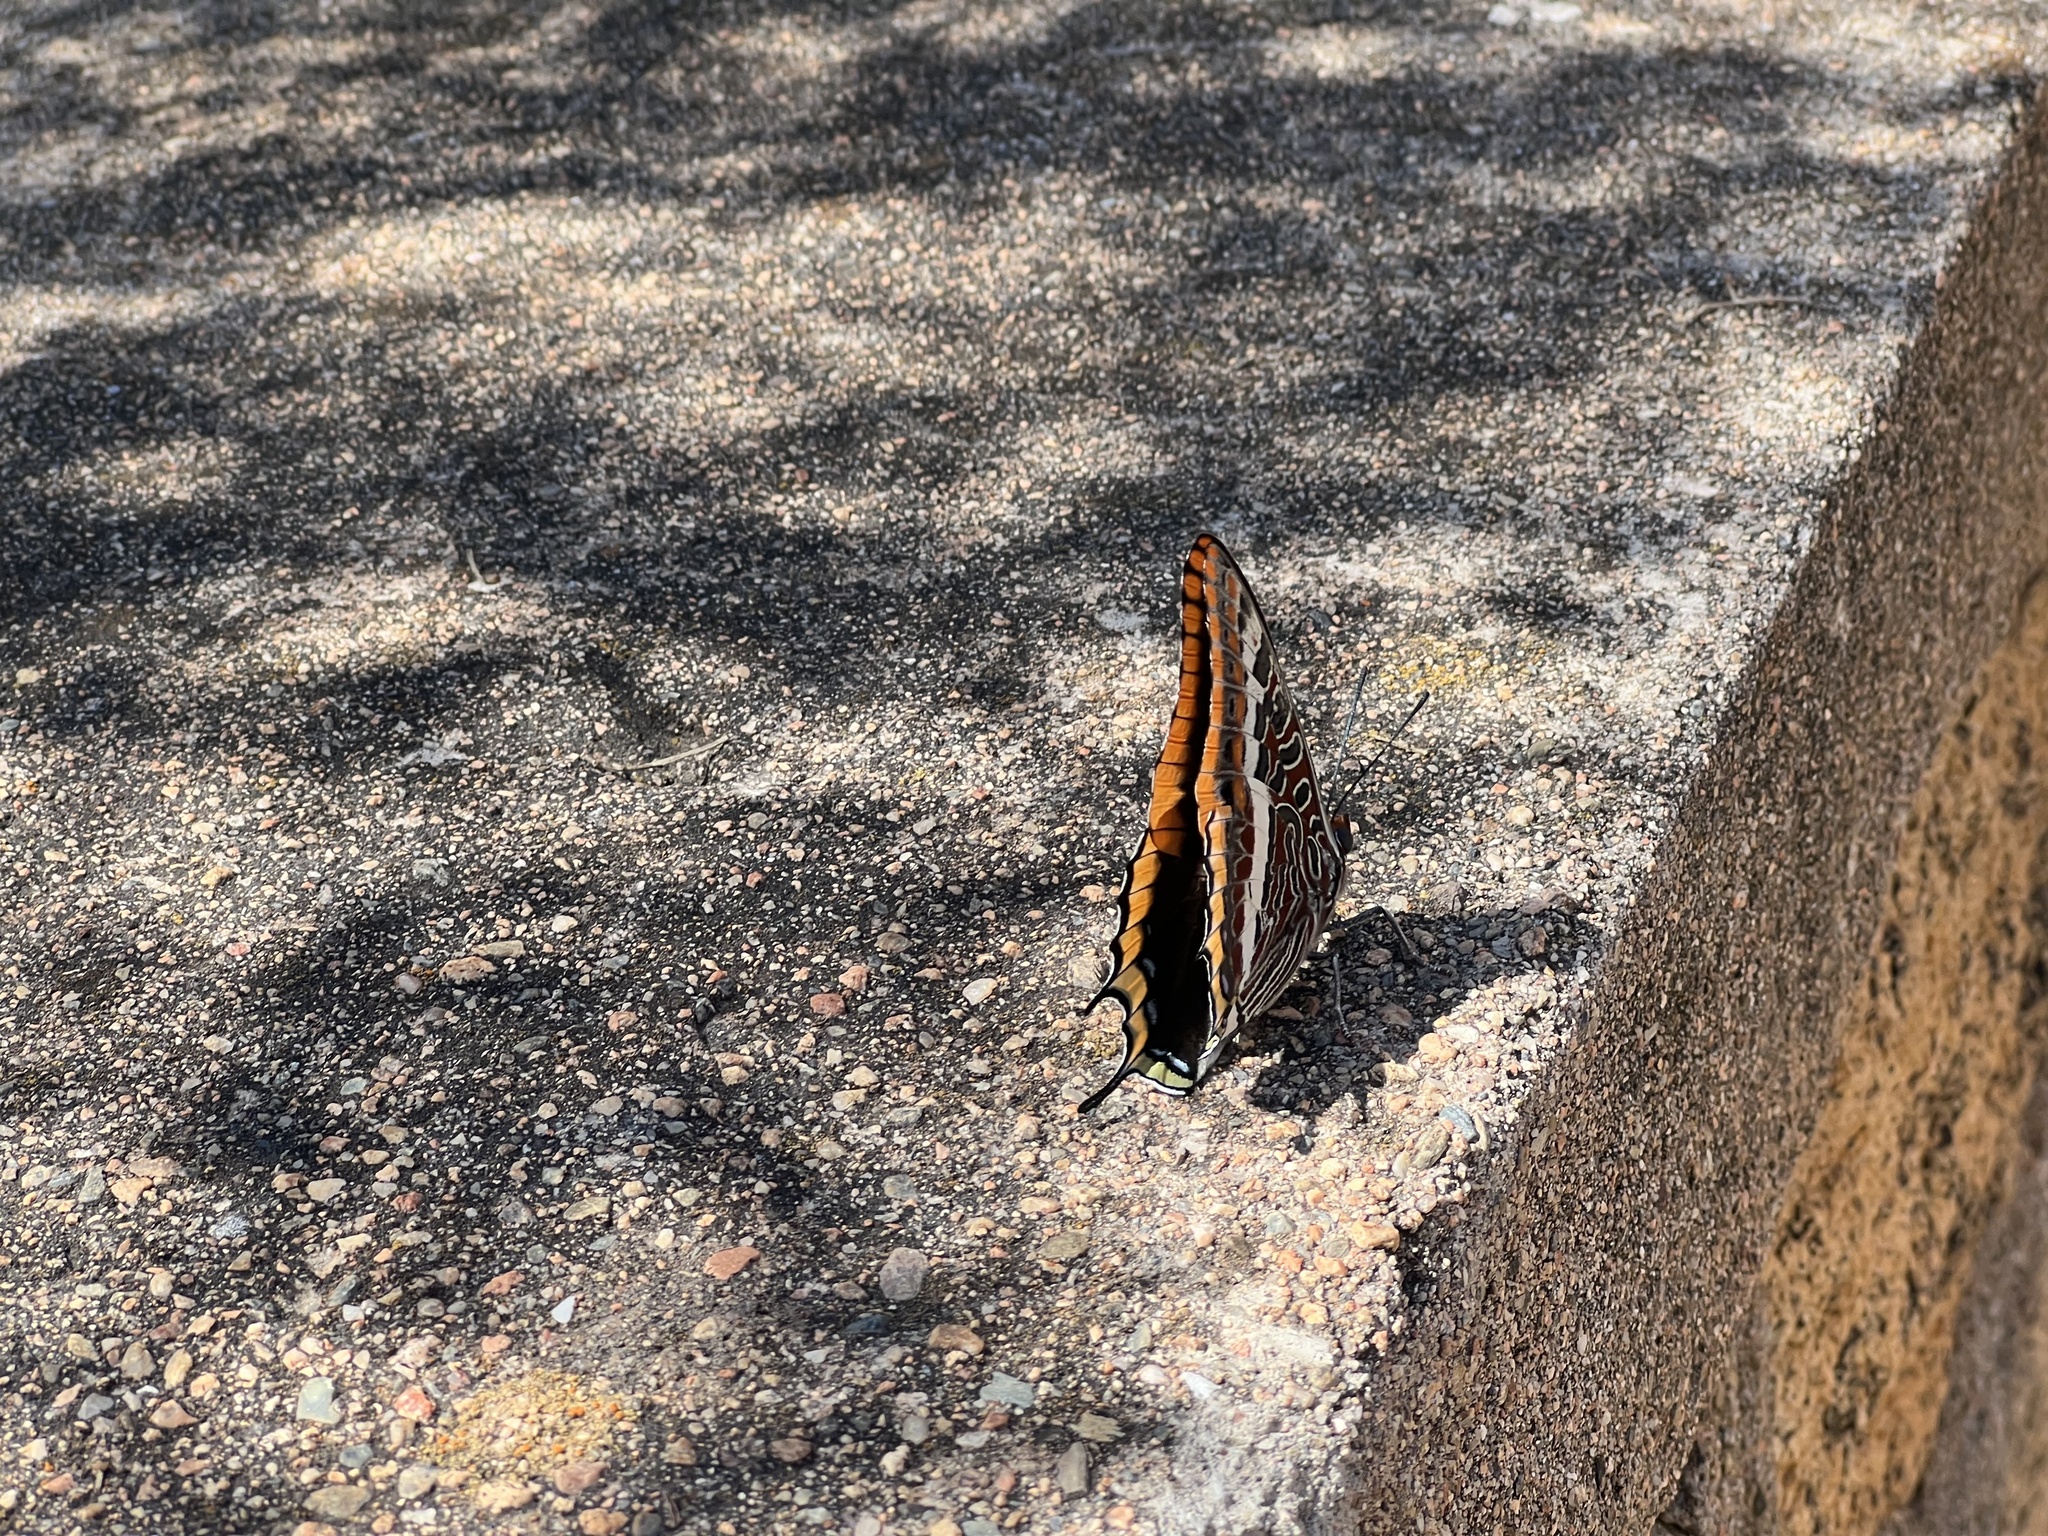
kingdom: Animalia
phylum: Arthropoda
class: Insecta
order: Lepidoptera
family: Nymphalidae
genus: Charaxes
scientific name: Charaxes jasius
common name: Two tailed pasha
